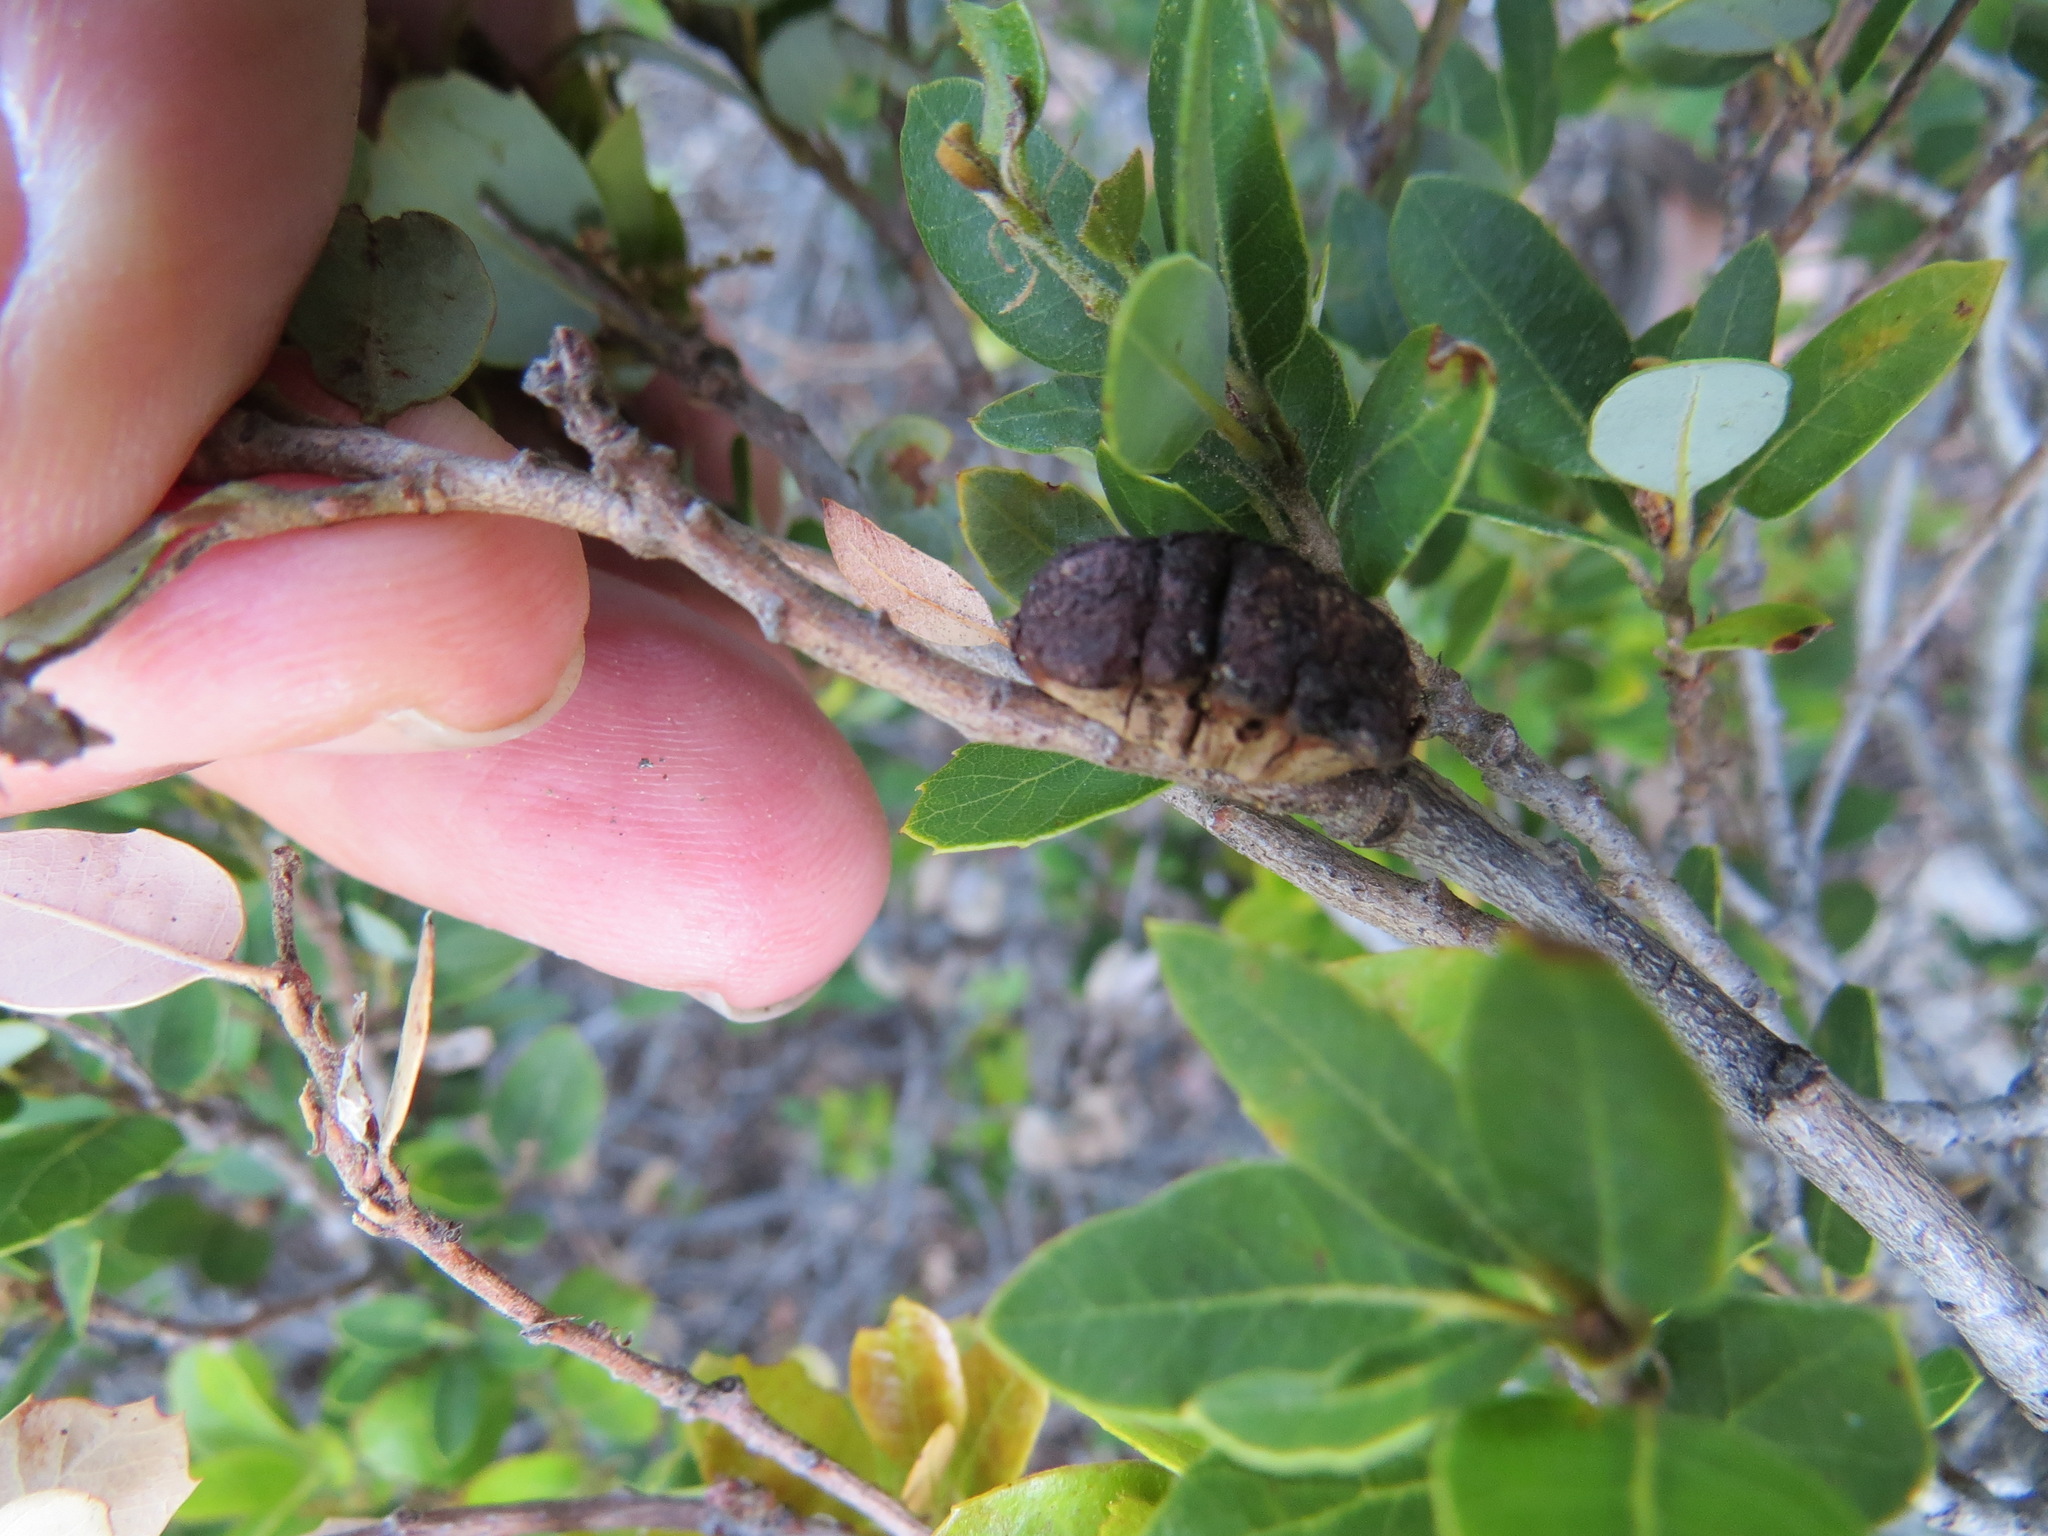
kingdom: Animalia
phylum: Arthropoda
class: Insecta
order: Hymenoptera
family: Cynipidae
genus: Disholandricus
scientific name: Disholandricus
